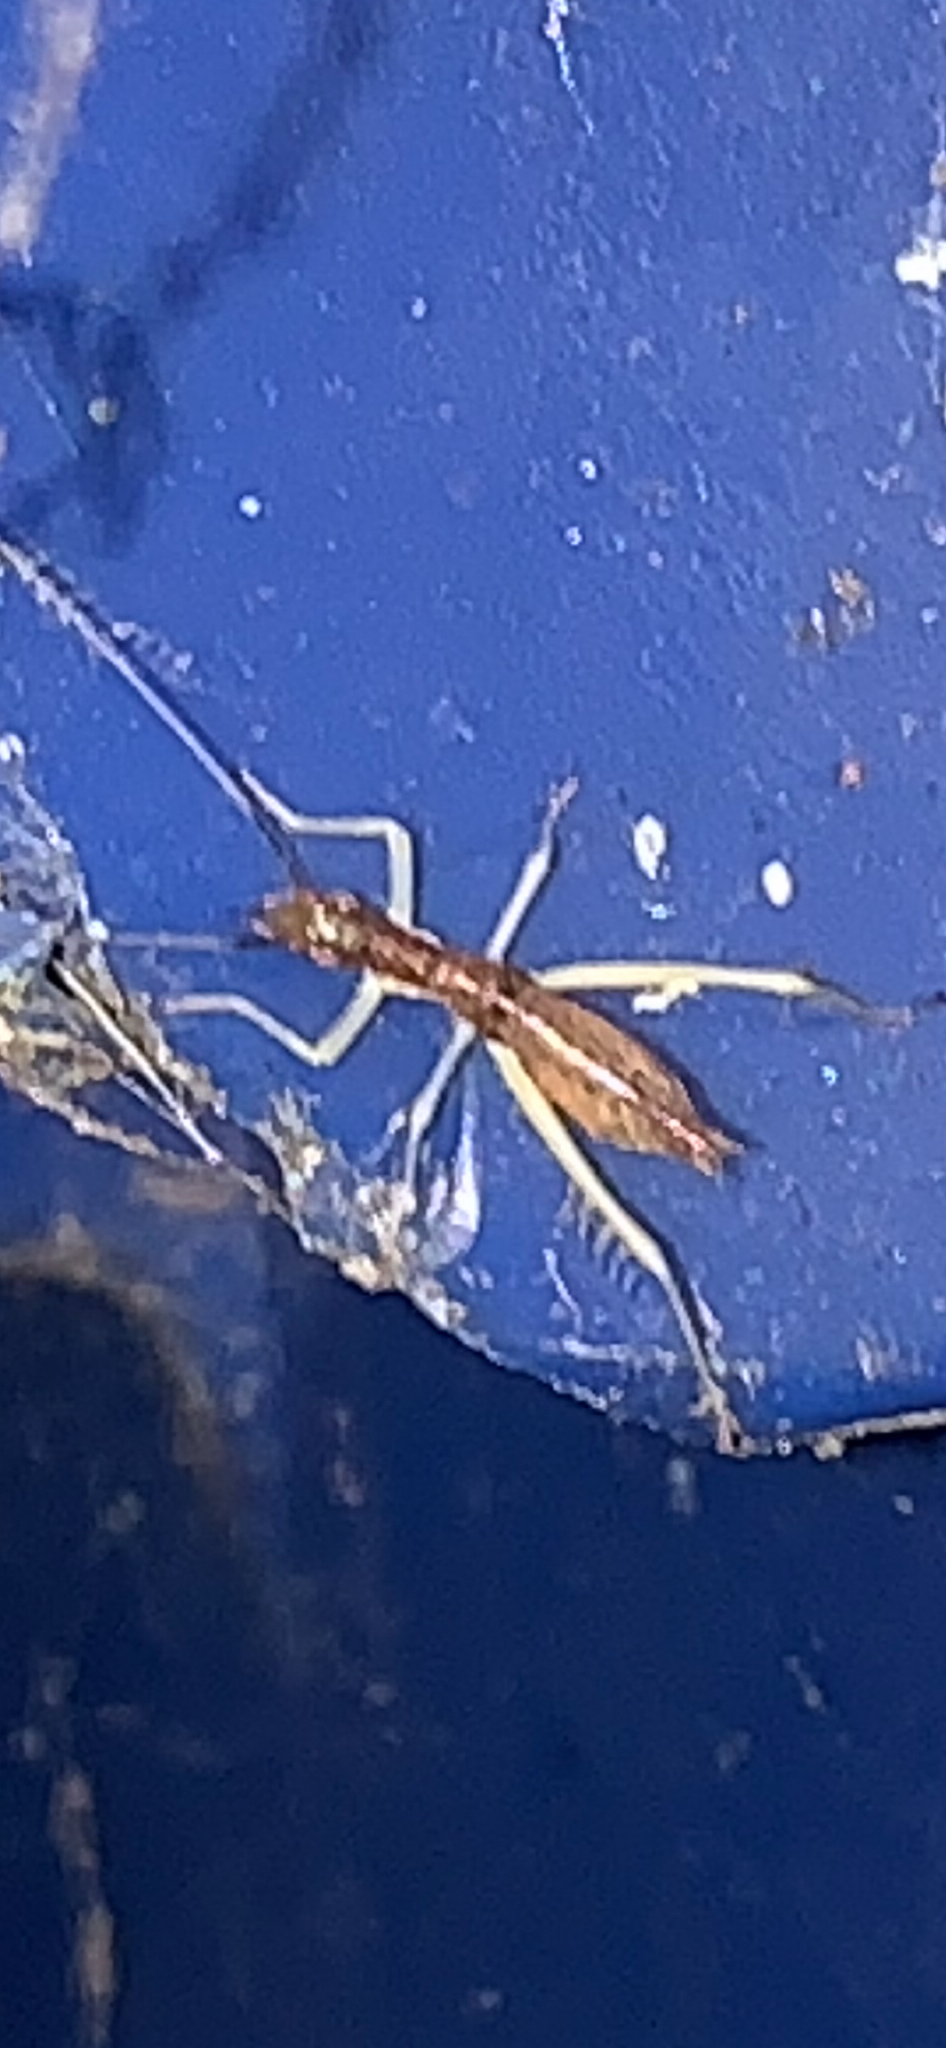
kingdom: Animalia
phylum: Arthropoda
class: Insecta
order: Orthoptera
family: Gryllidae
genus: Neoxabea
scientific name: Neoxabea bipunctata
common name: Two-spotted tree cricket
